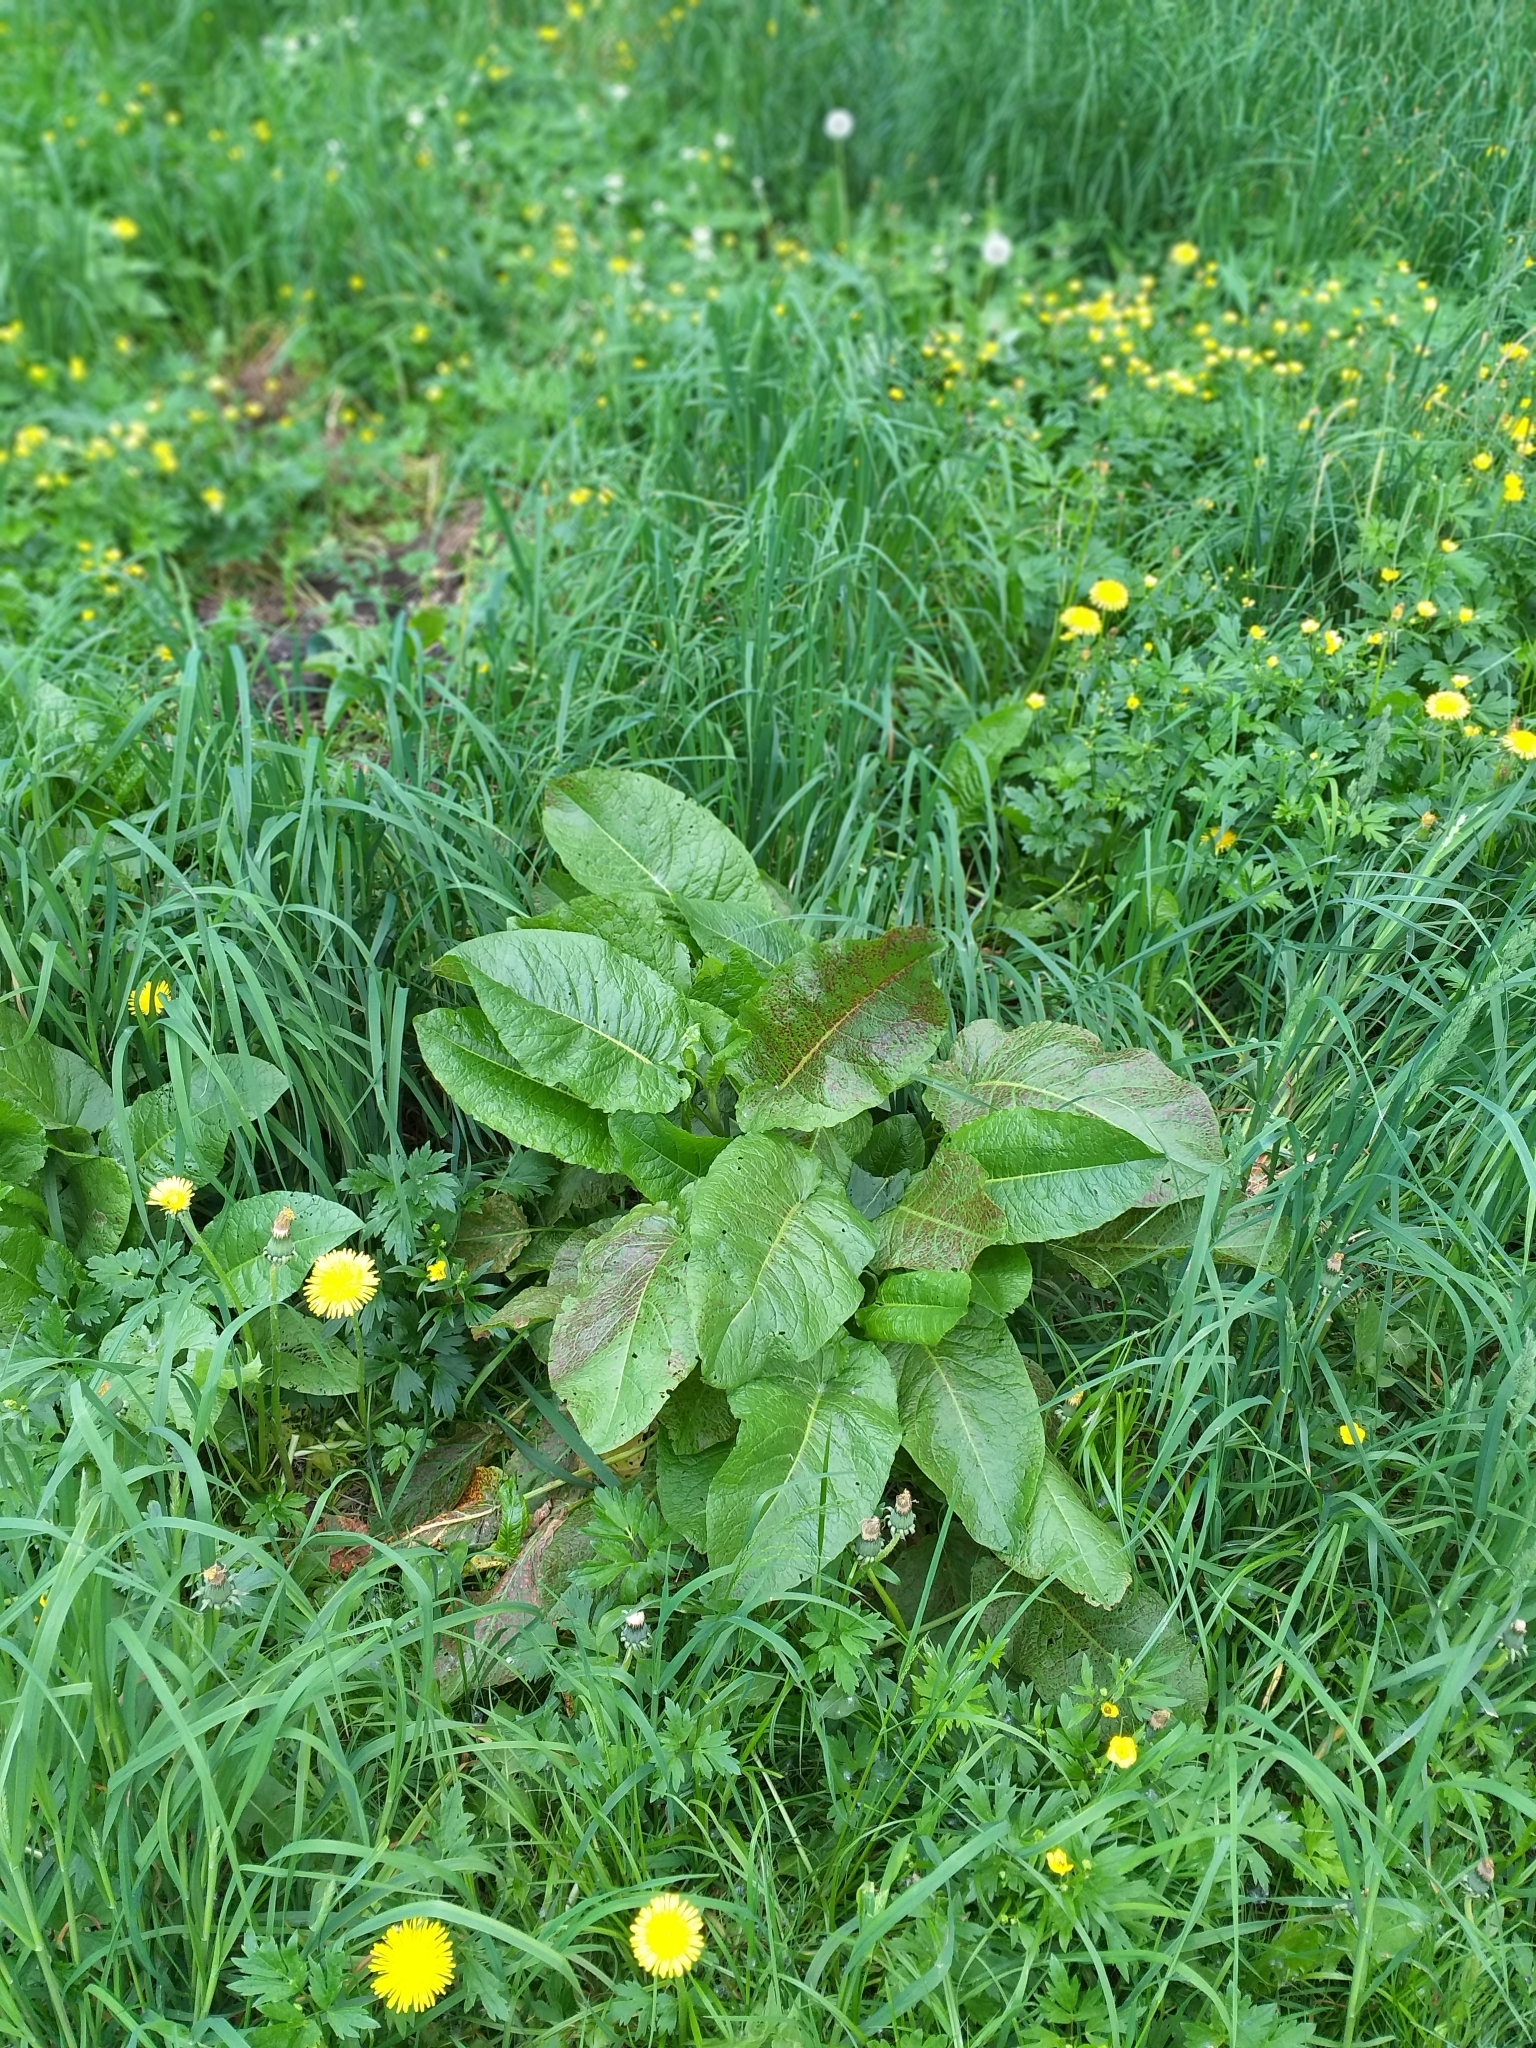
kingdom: Plantae
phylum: Tracheophyta
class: Magnoliopsida
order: Caryophyllales
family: Polygonaceae
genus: Rumex
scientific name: Rumex obtusifolius
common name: Bitter dock
